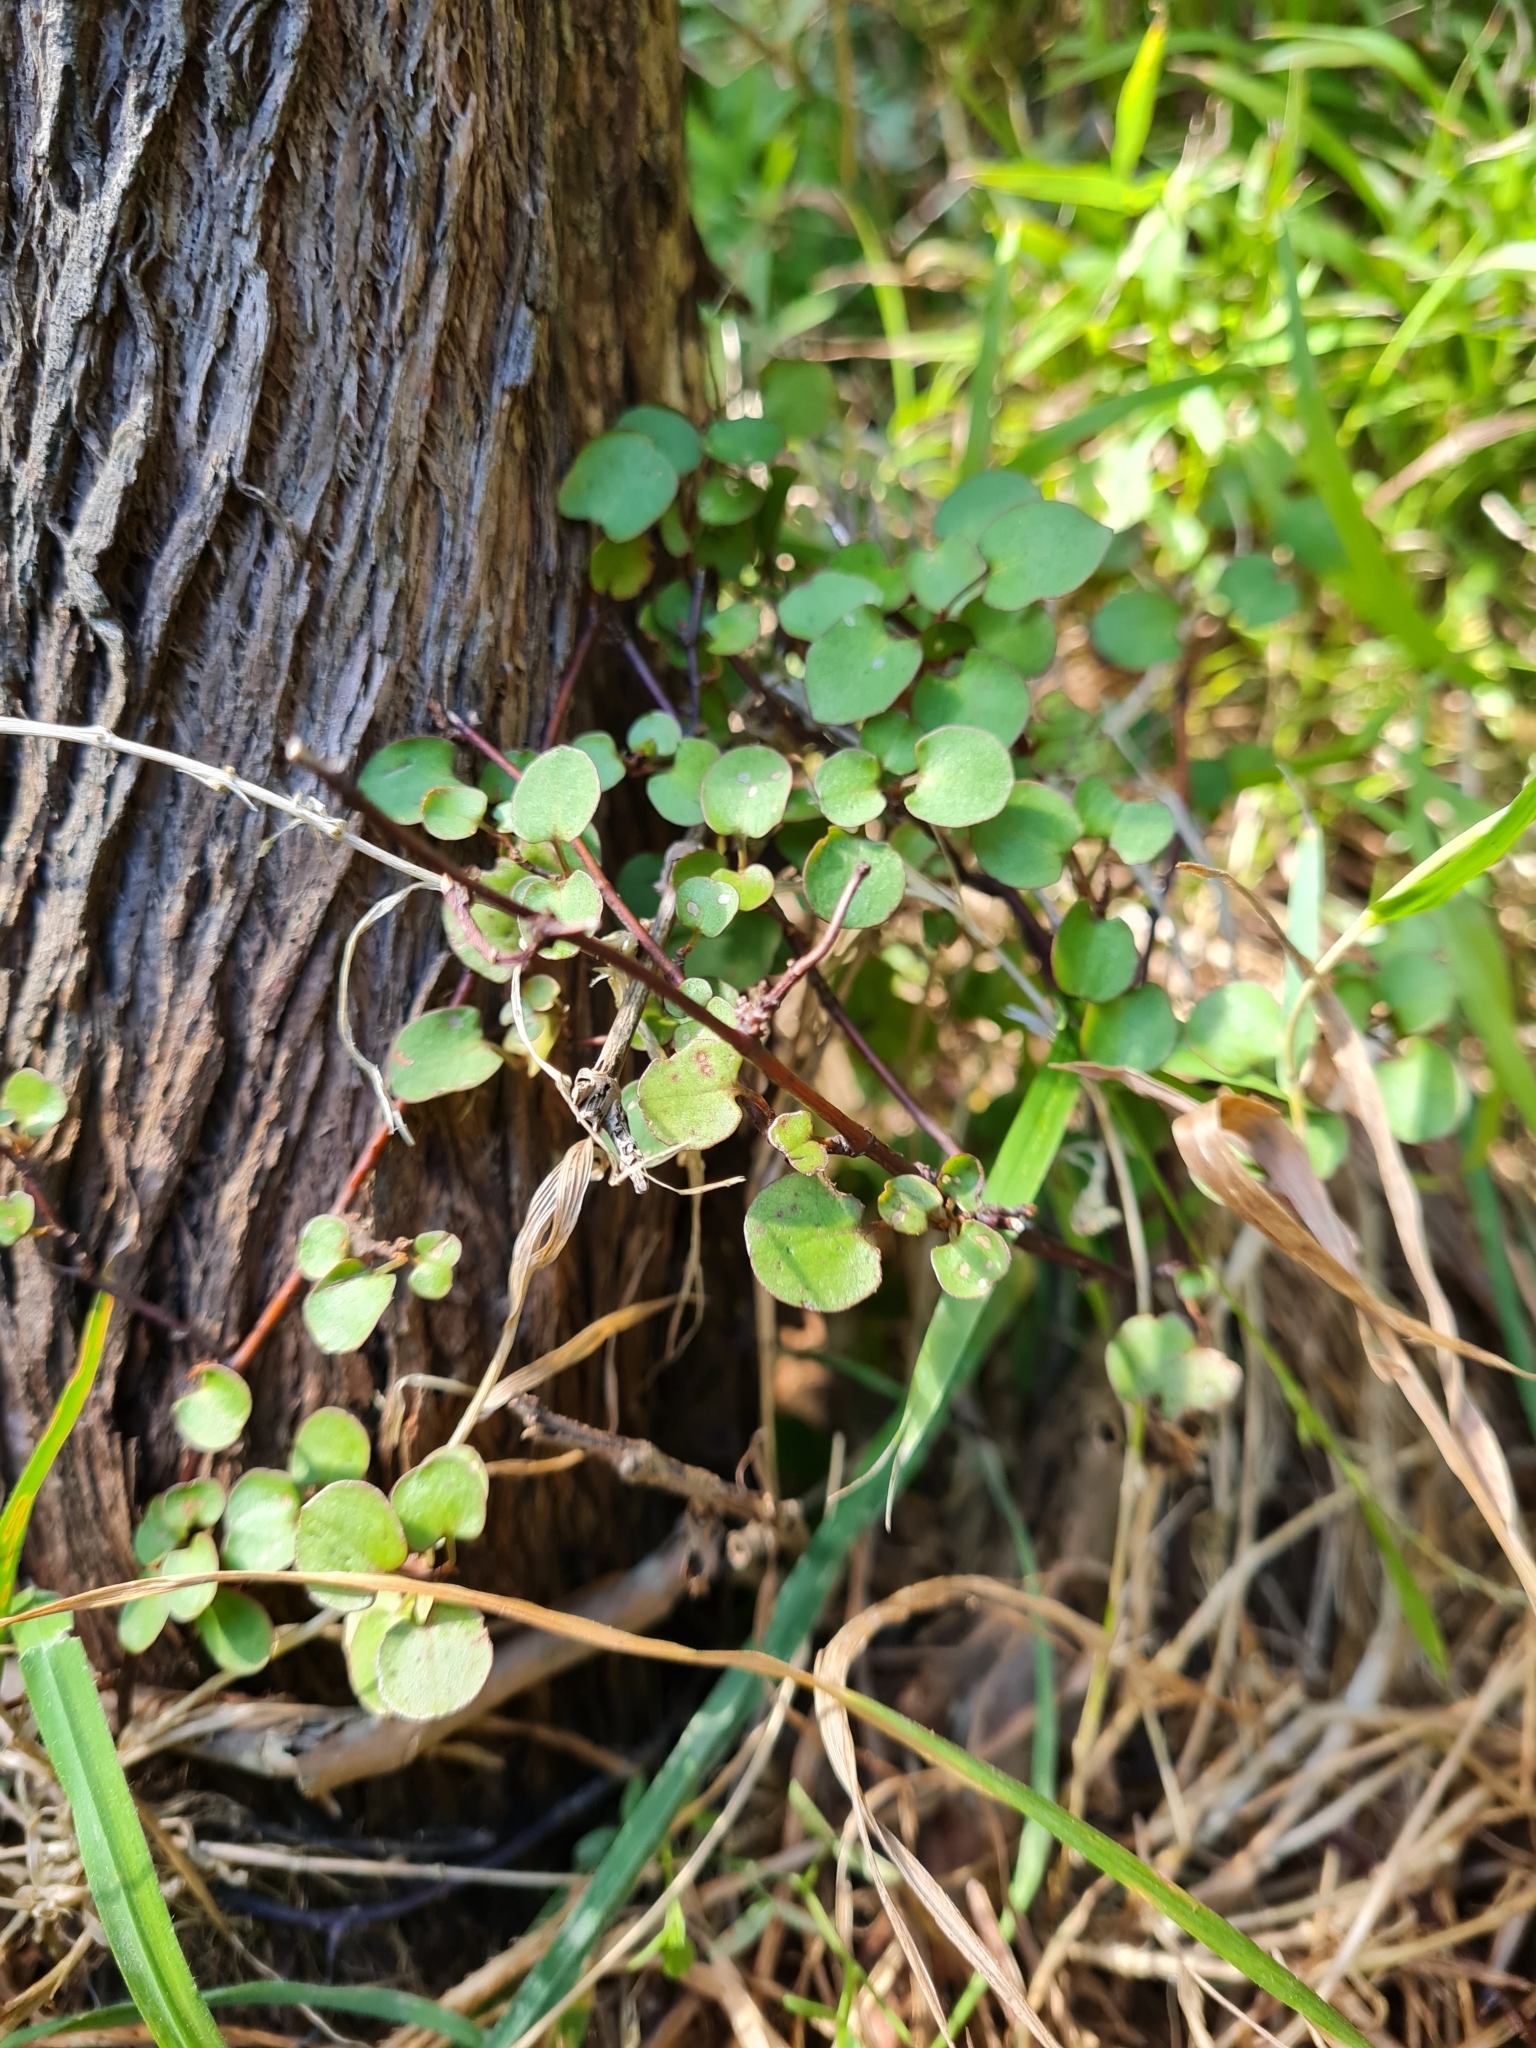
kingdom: Plantae
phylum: Tracheophyta
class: Magnoliopsida
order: Caryophyllales
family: Polygonaceae
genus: Muehlenbeckia
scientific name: Muehlenbeckia complexa
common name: Wireplant
